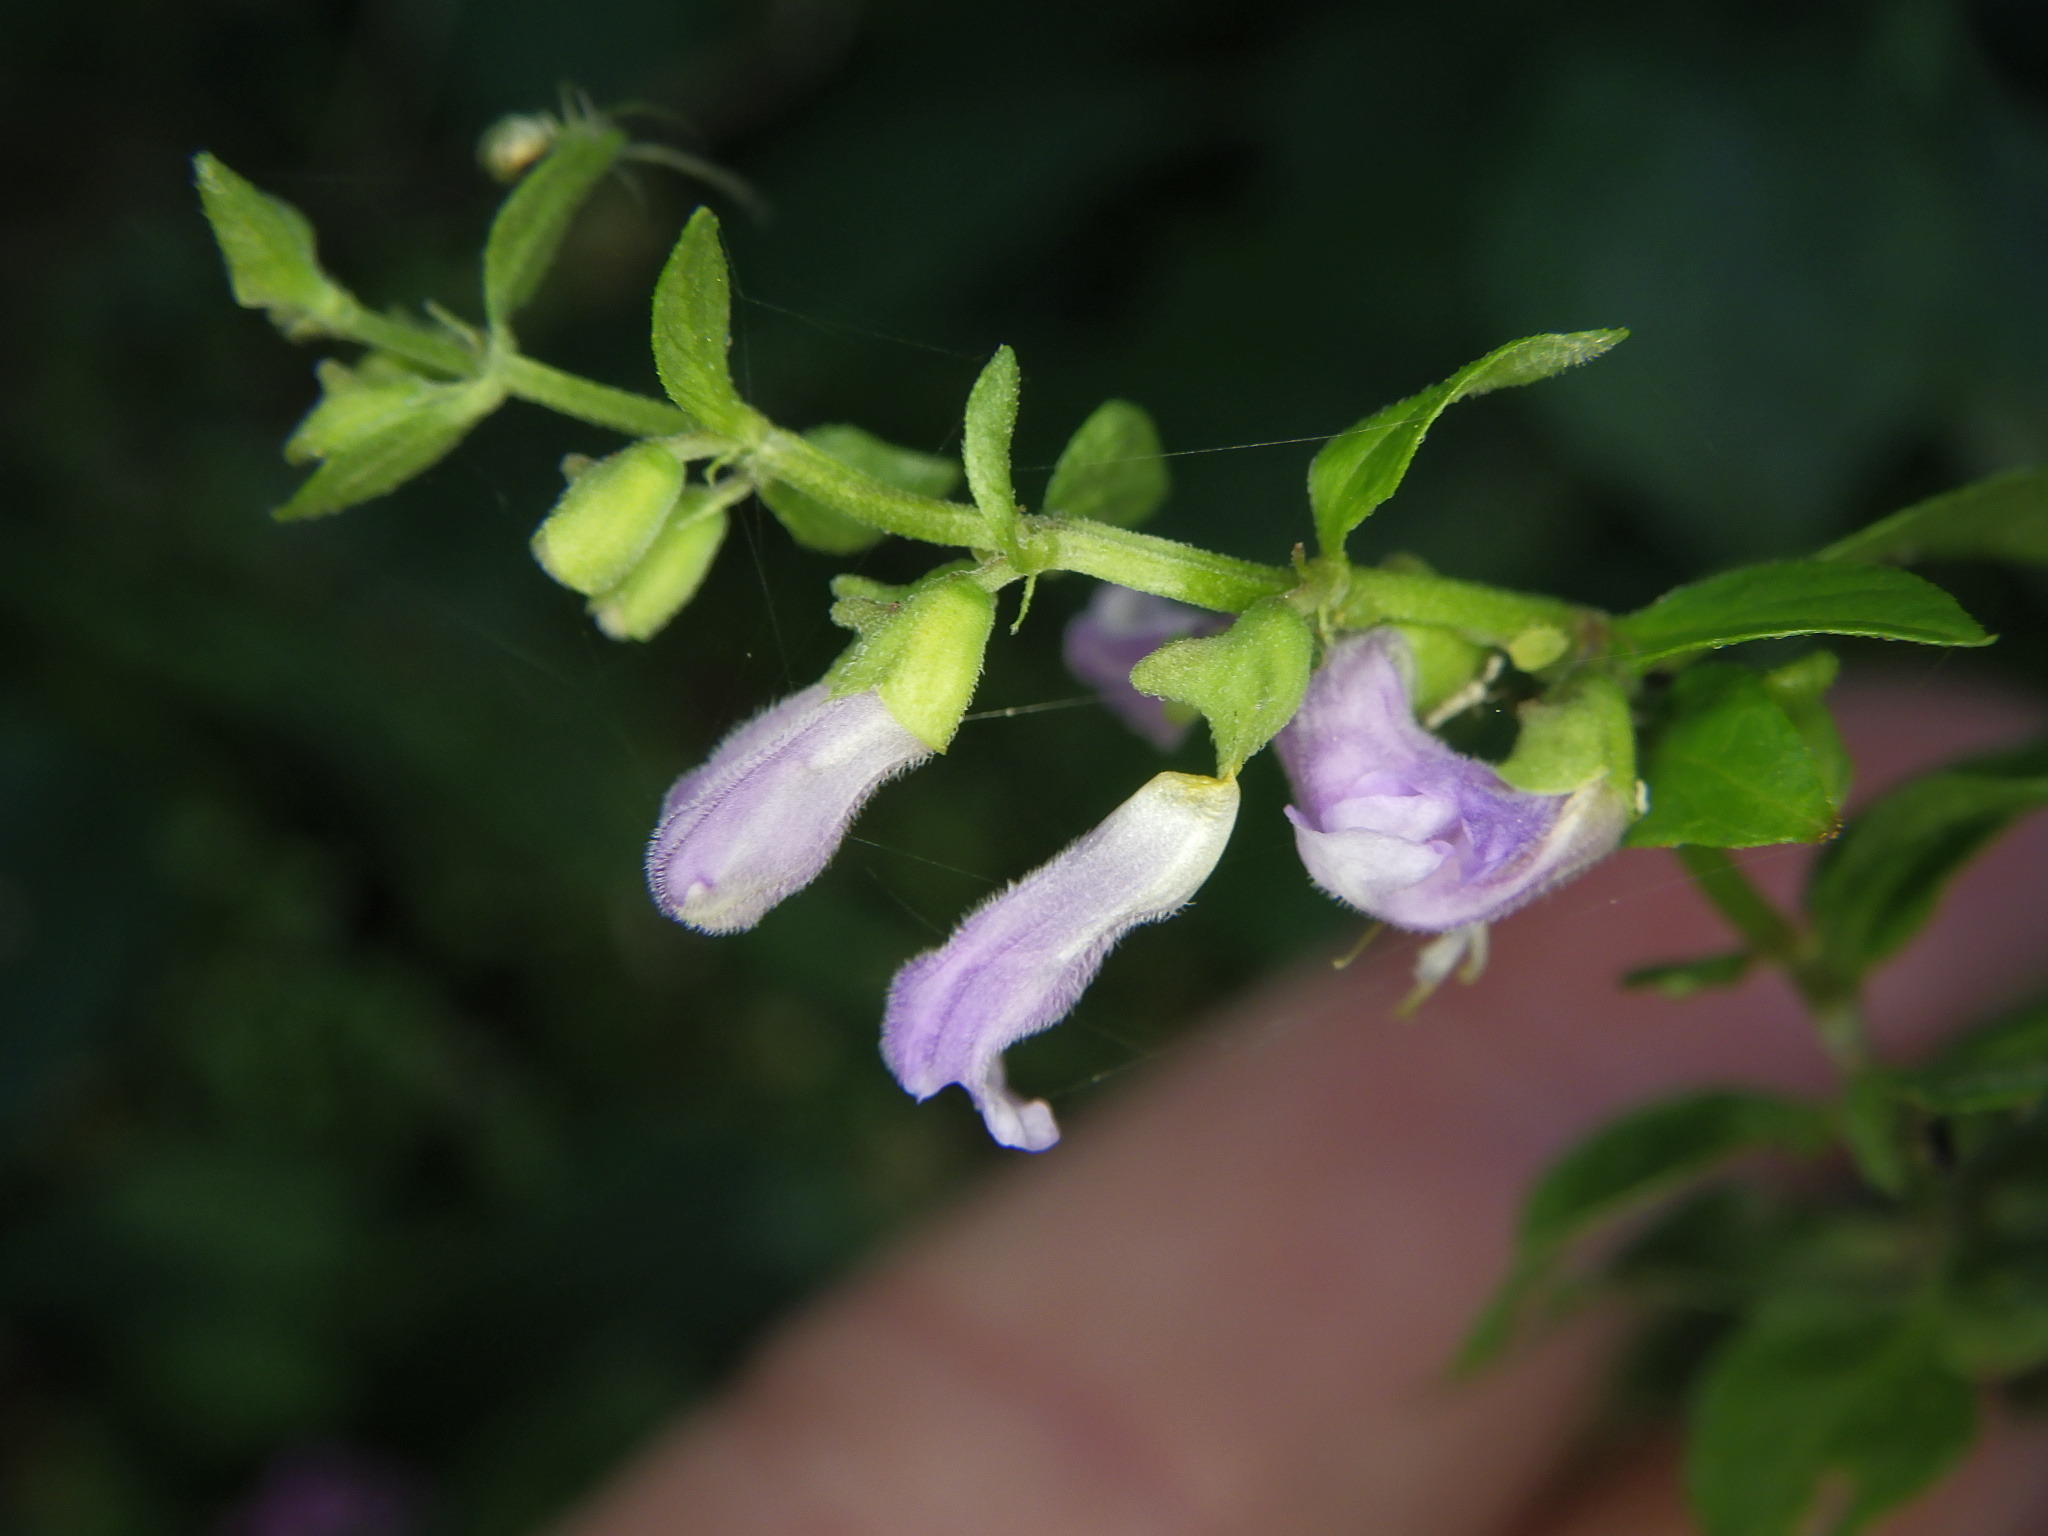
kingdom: Plantae
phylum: Tracheophyta
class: Magnoliopsida
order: Lamiales
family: Lamiaceae
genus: Scutellaria
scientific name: Scutellaria lateriflora
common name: Blue skullcap
